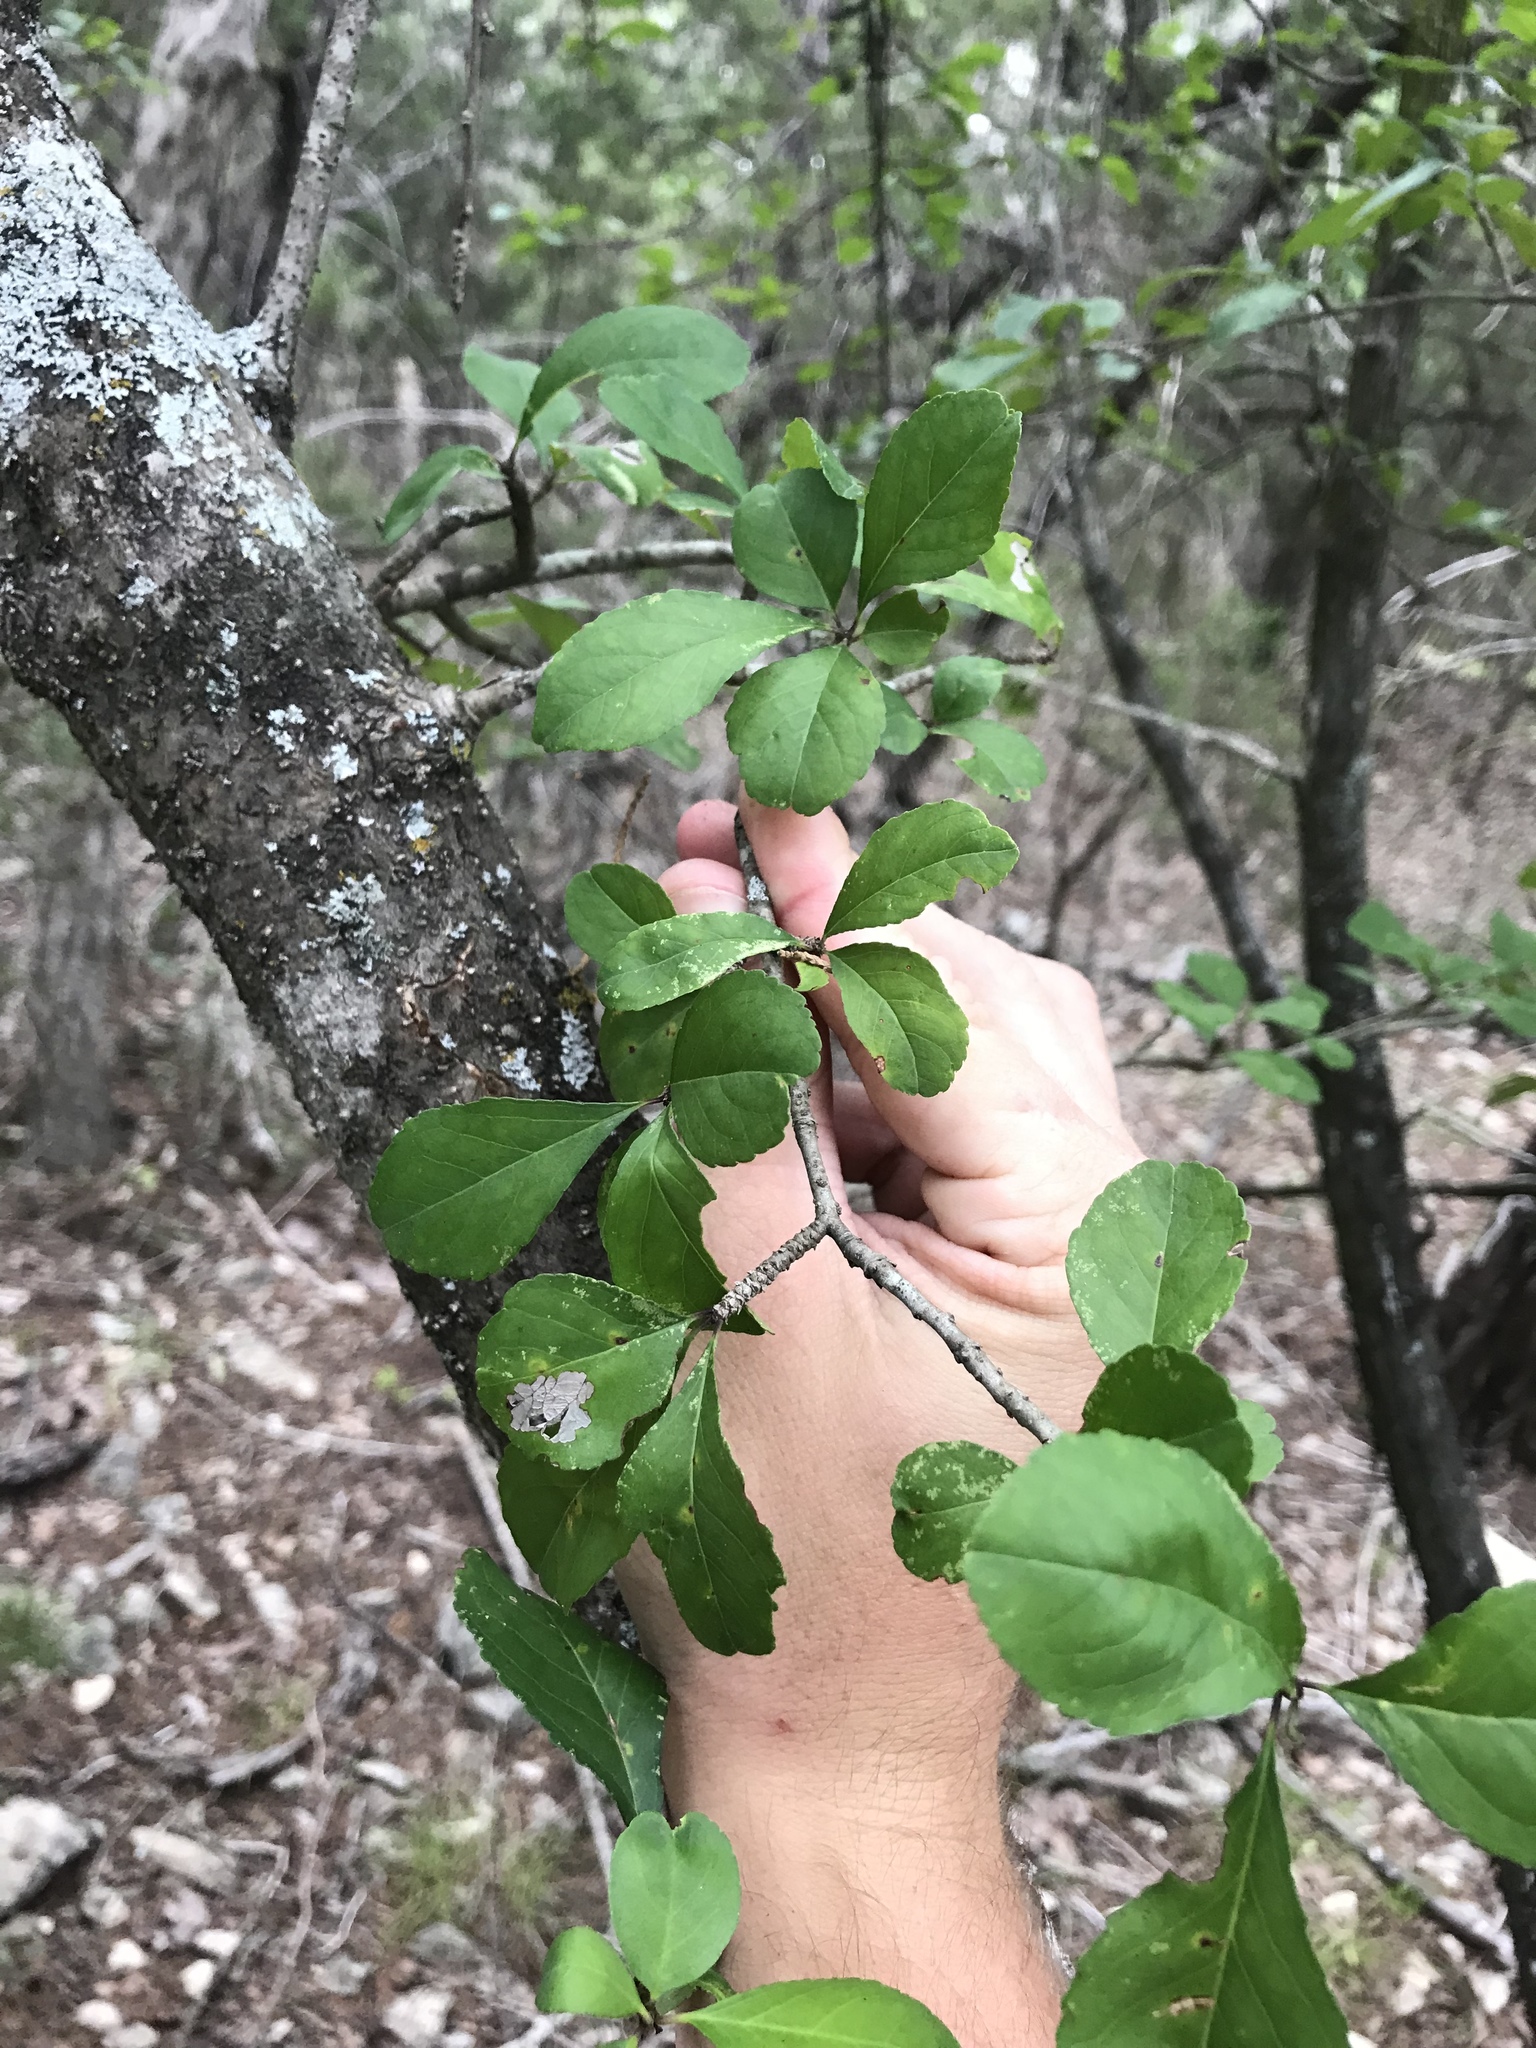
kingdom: Plantae
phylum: Tracheophyta
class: Magnoliopsida
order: Aquifoliales
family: Aquifoliaceae
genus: Ilex
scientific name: Ilex decidua
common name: Possum-haw
